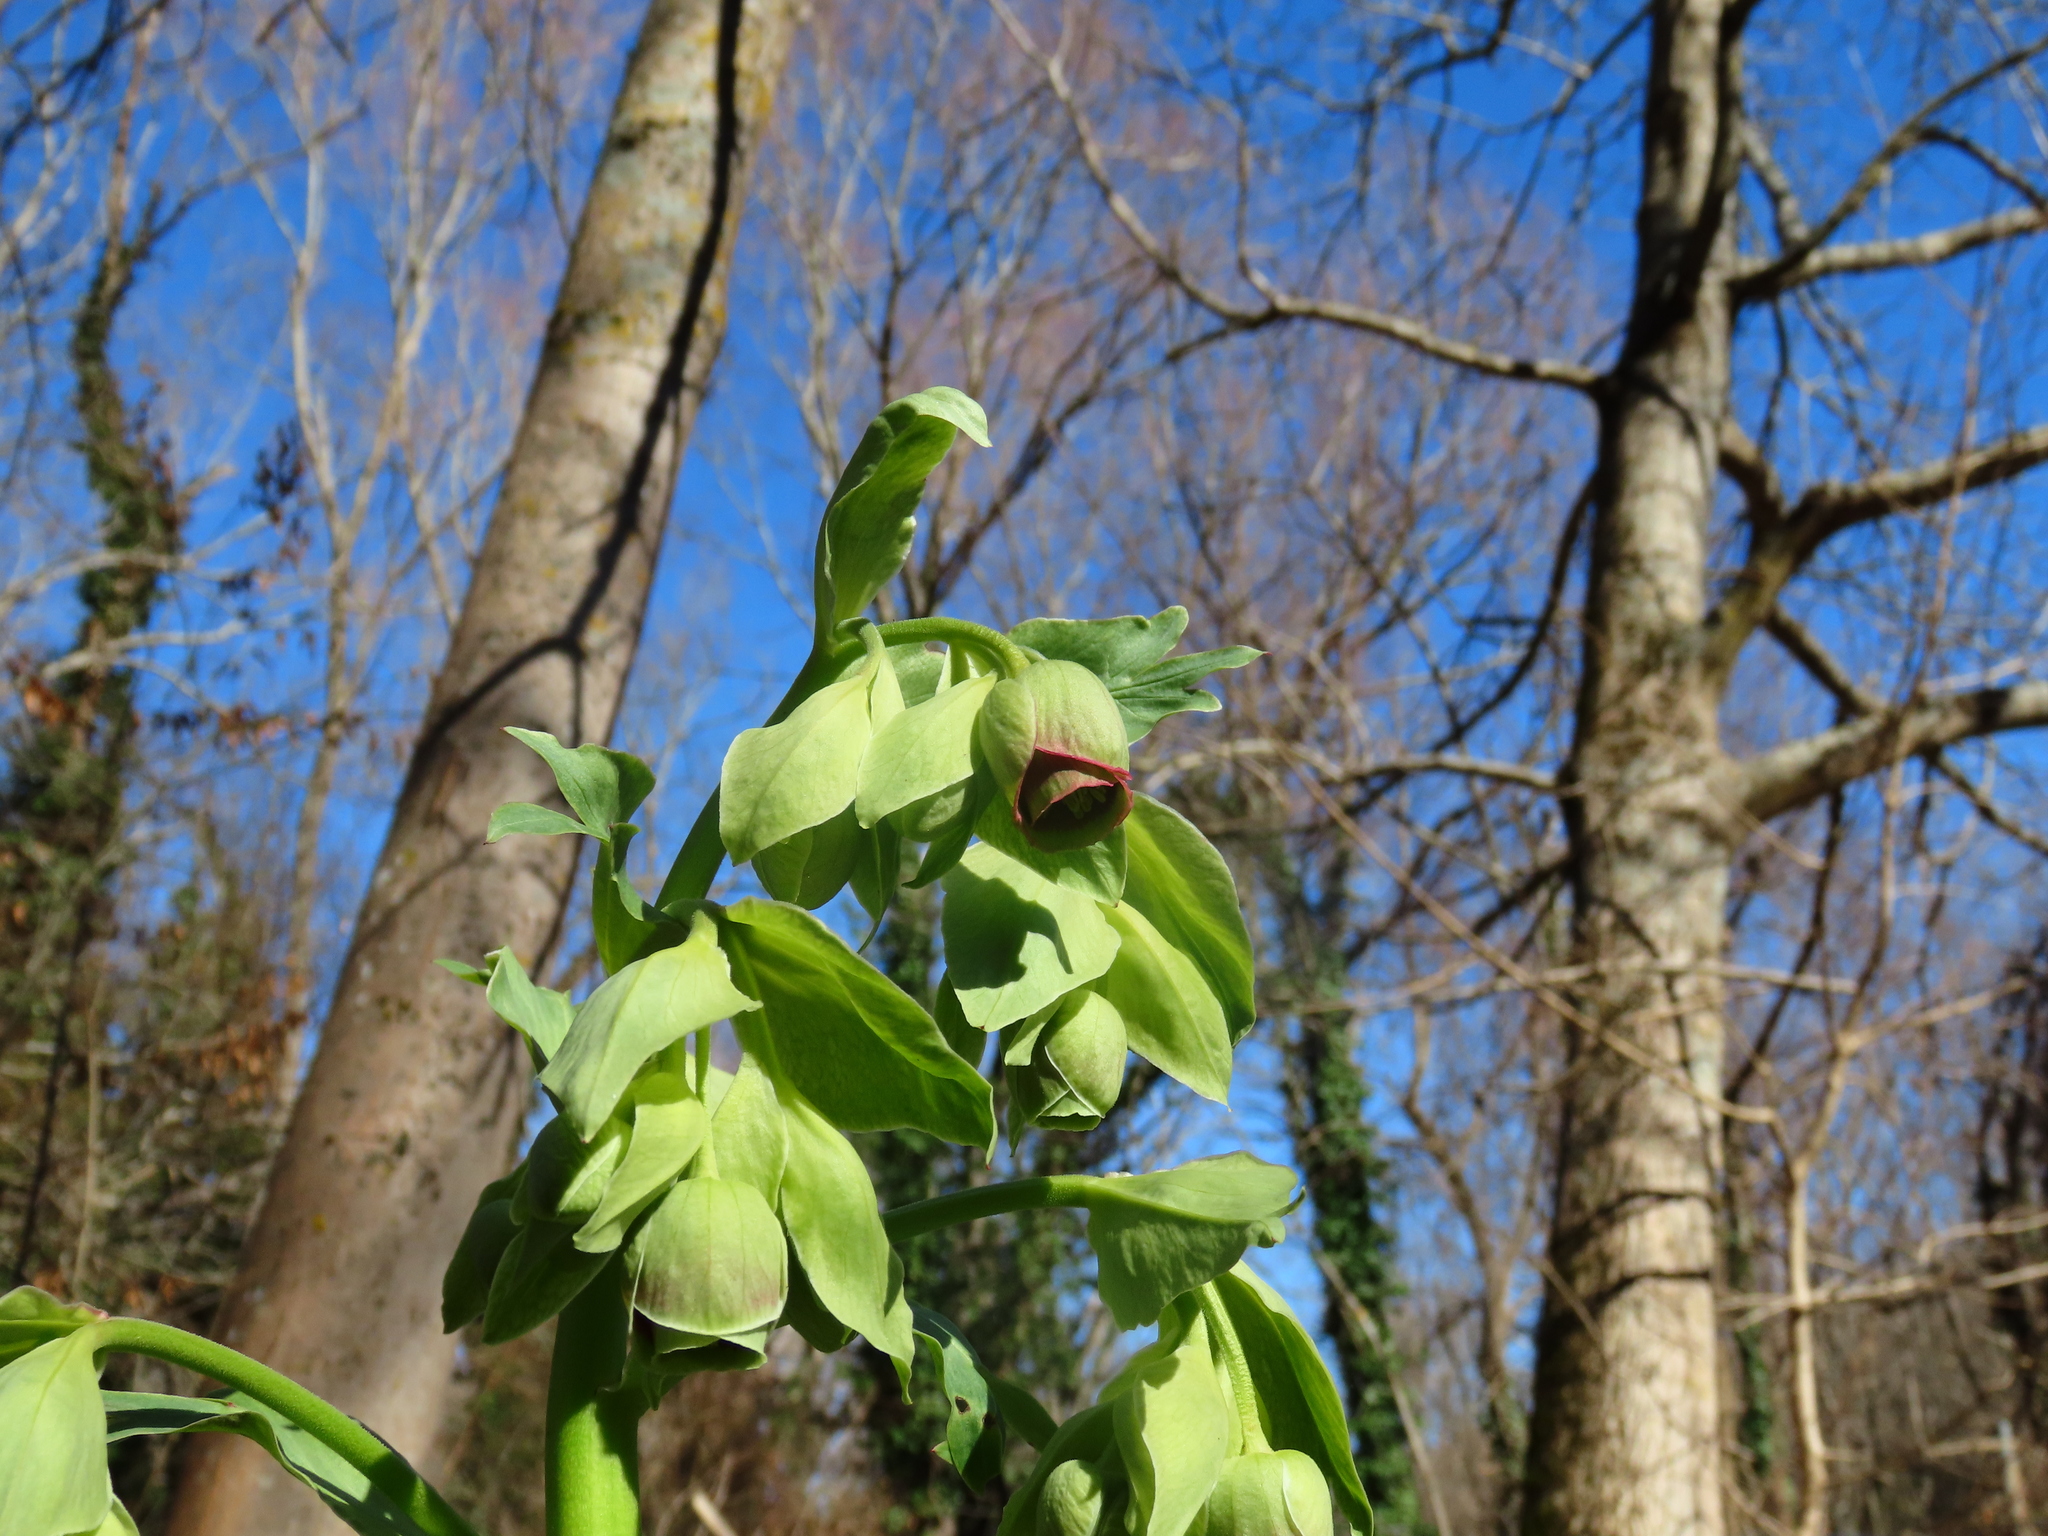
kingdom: Plantae
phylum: Tracheophyta
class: Magnoliopsida
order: Ranunculales
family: Ranunculaceae
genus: Helleborus
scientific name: Helleborus foetidus
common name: Stinking hellebore
